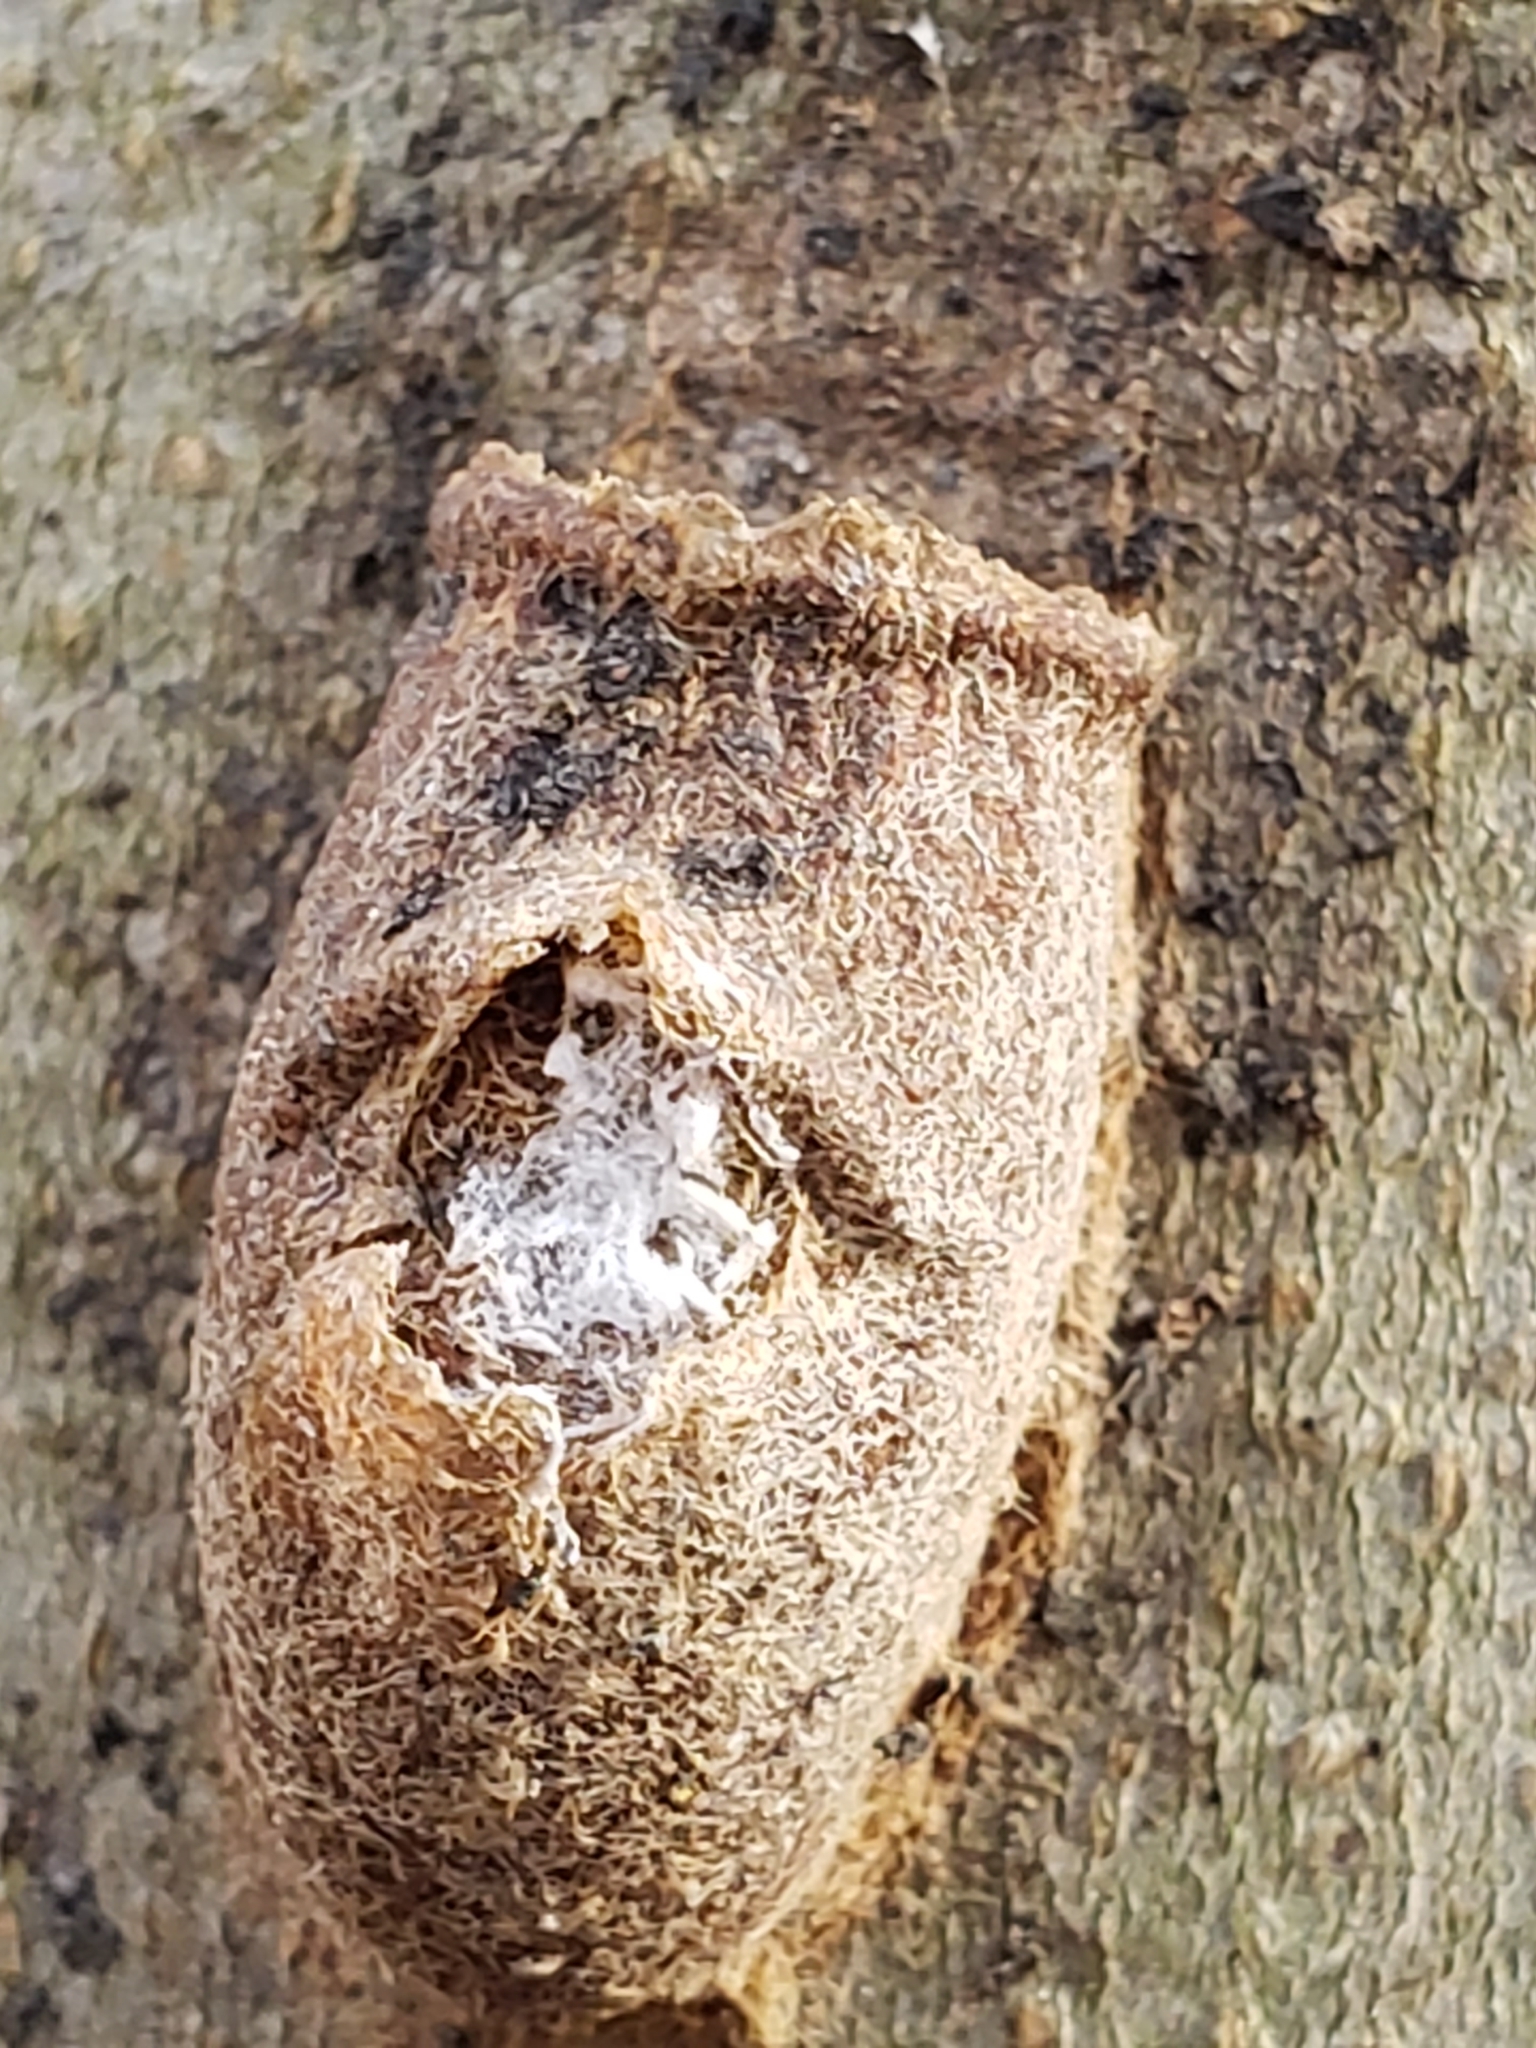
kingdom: Animalia
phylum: Arthropoda
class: Insecta
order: Lepidoptera
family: Megalopygidae
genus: Megalopyge
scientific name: Megalopyge
